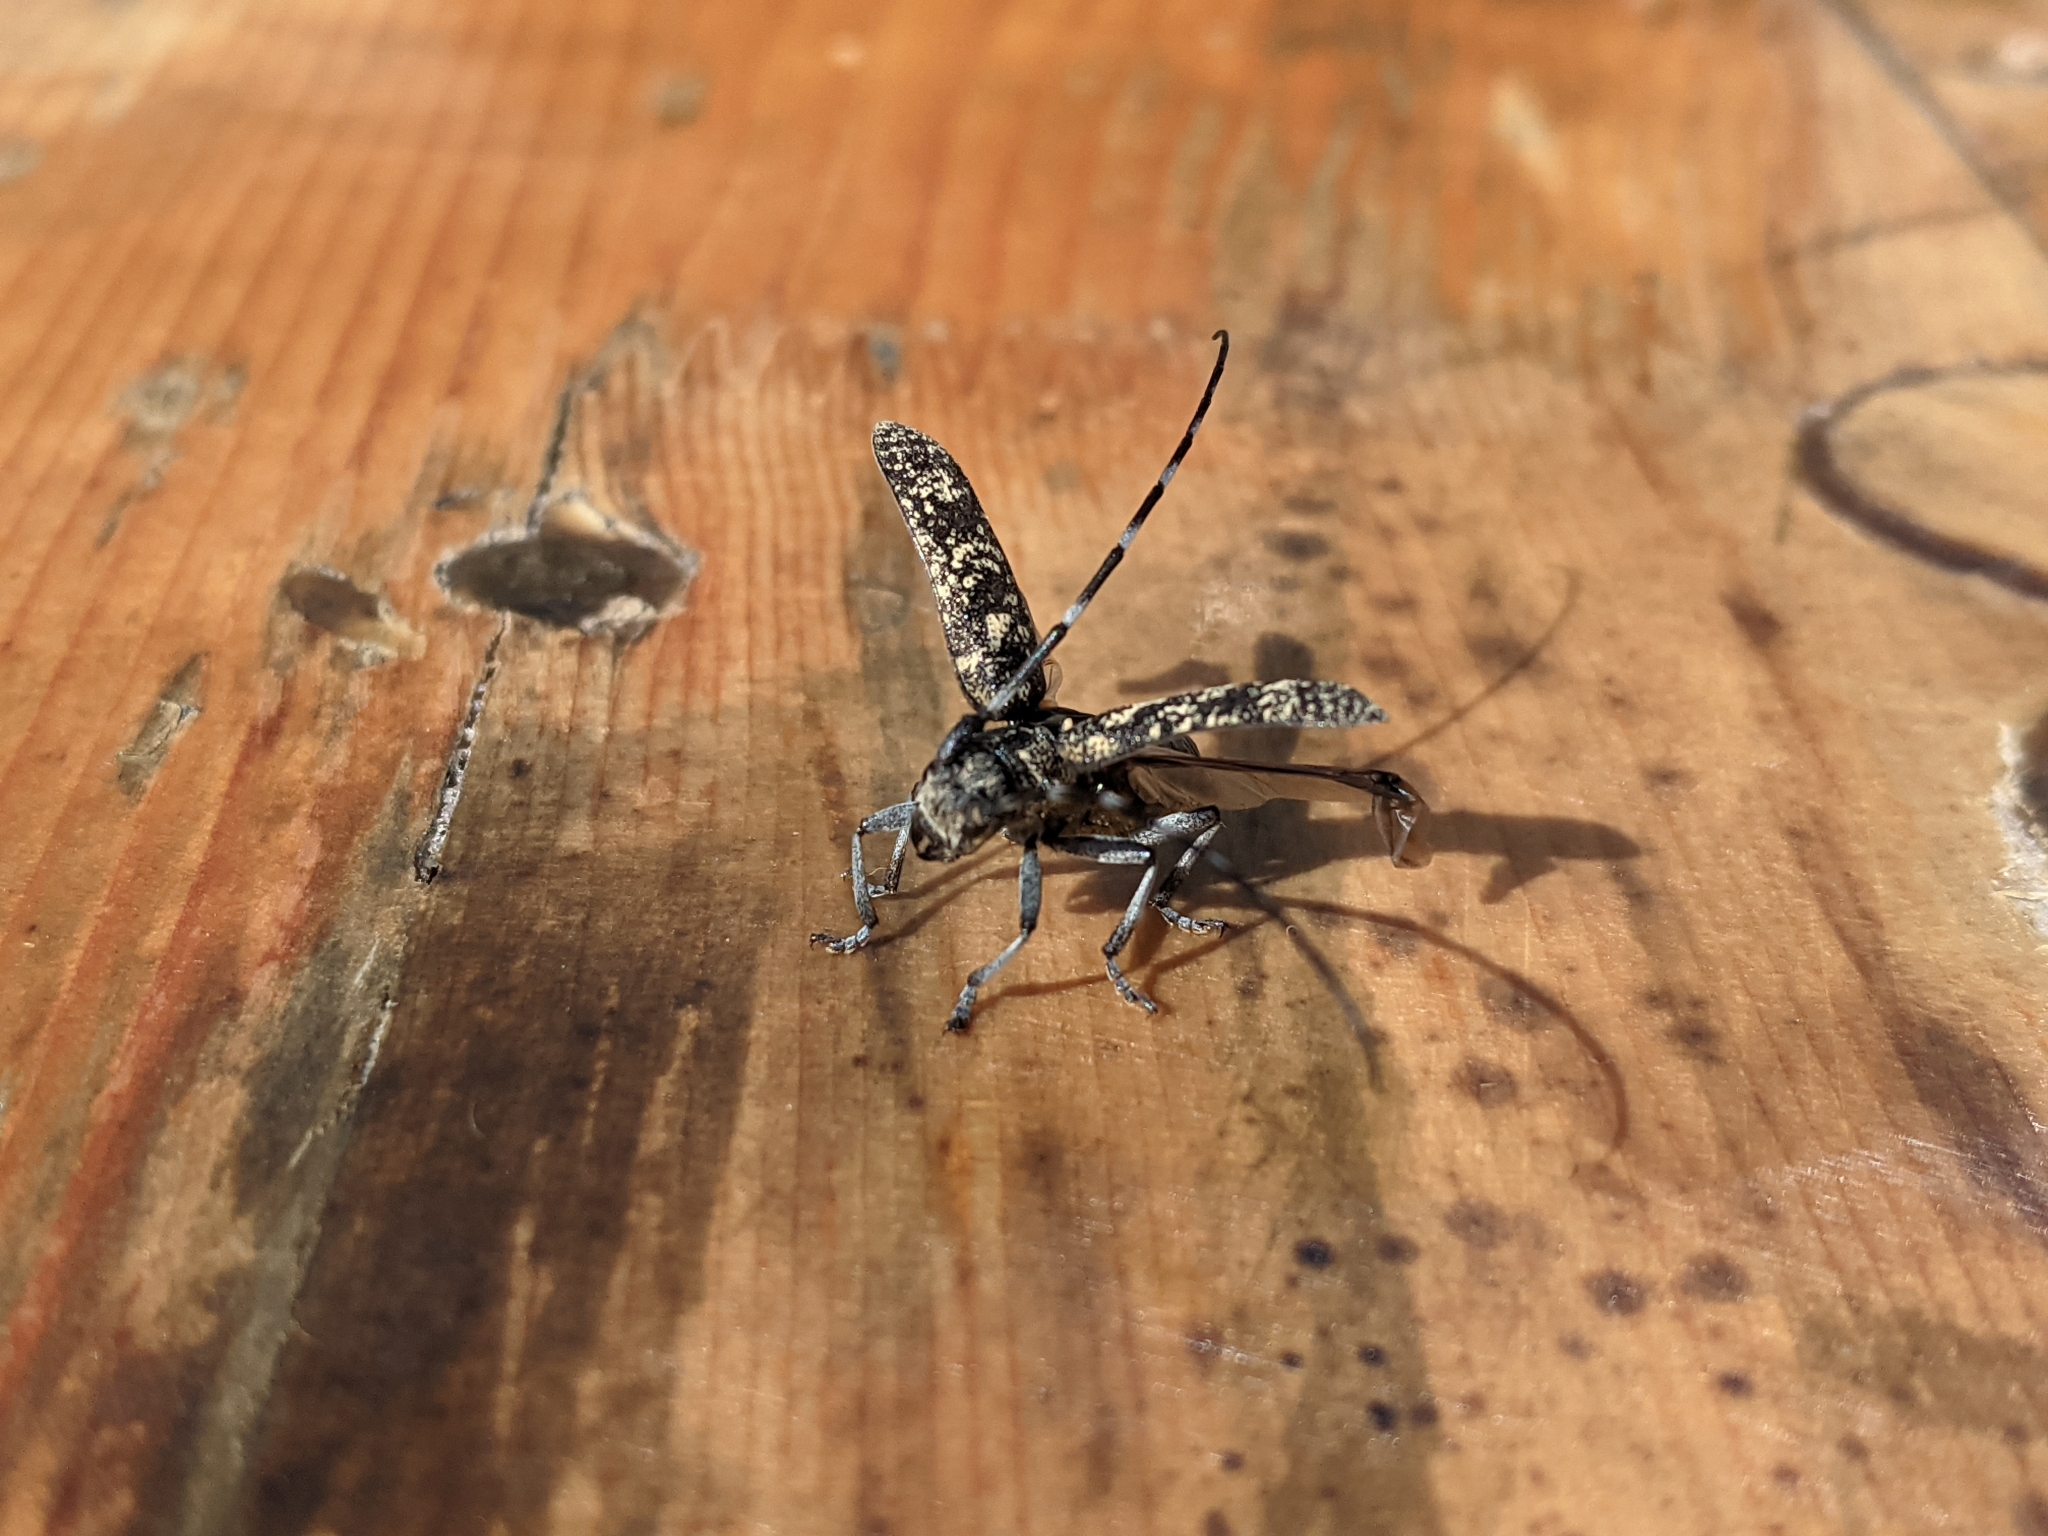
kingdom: Animalia
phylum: Arthropoda
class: Insecta
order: Coleoptera
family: Cerambycidae
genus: Monochamus
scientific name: Monochamus sutor
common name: Pine sawyer
